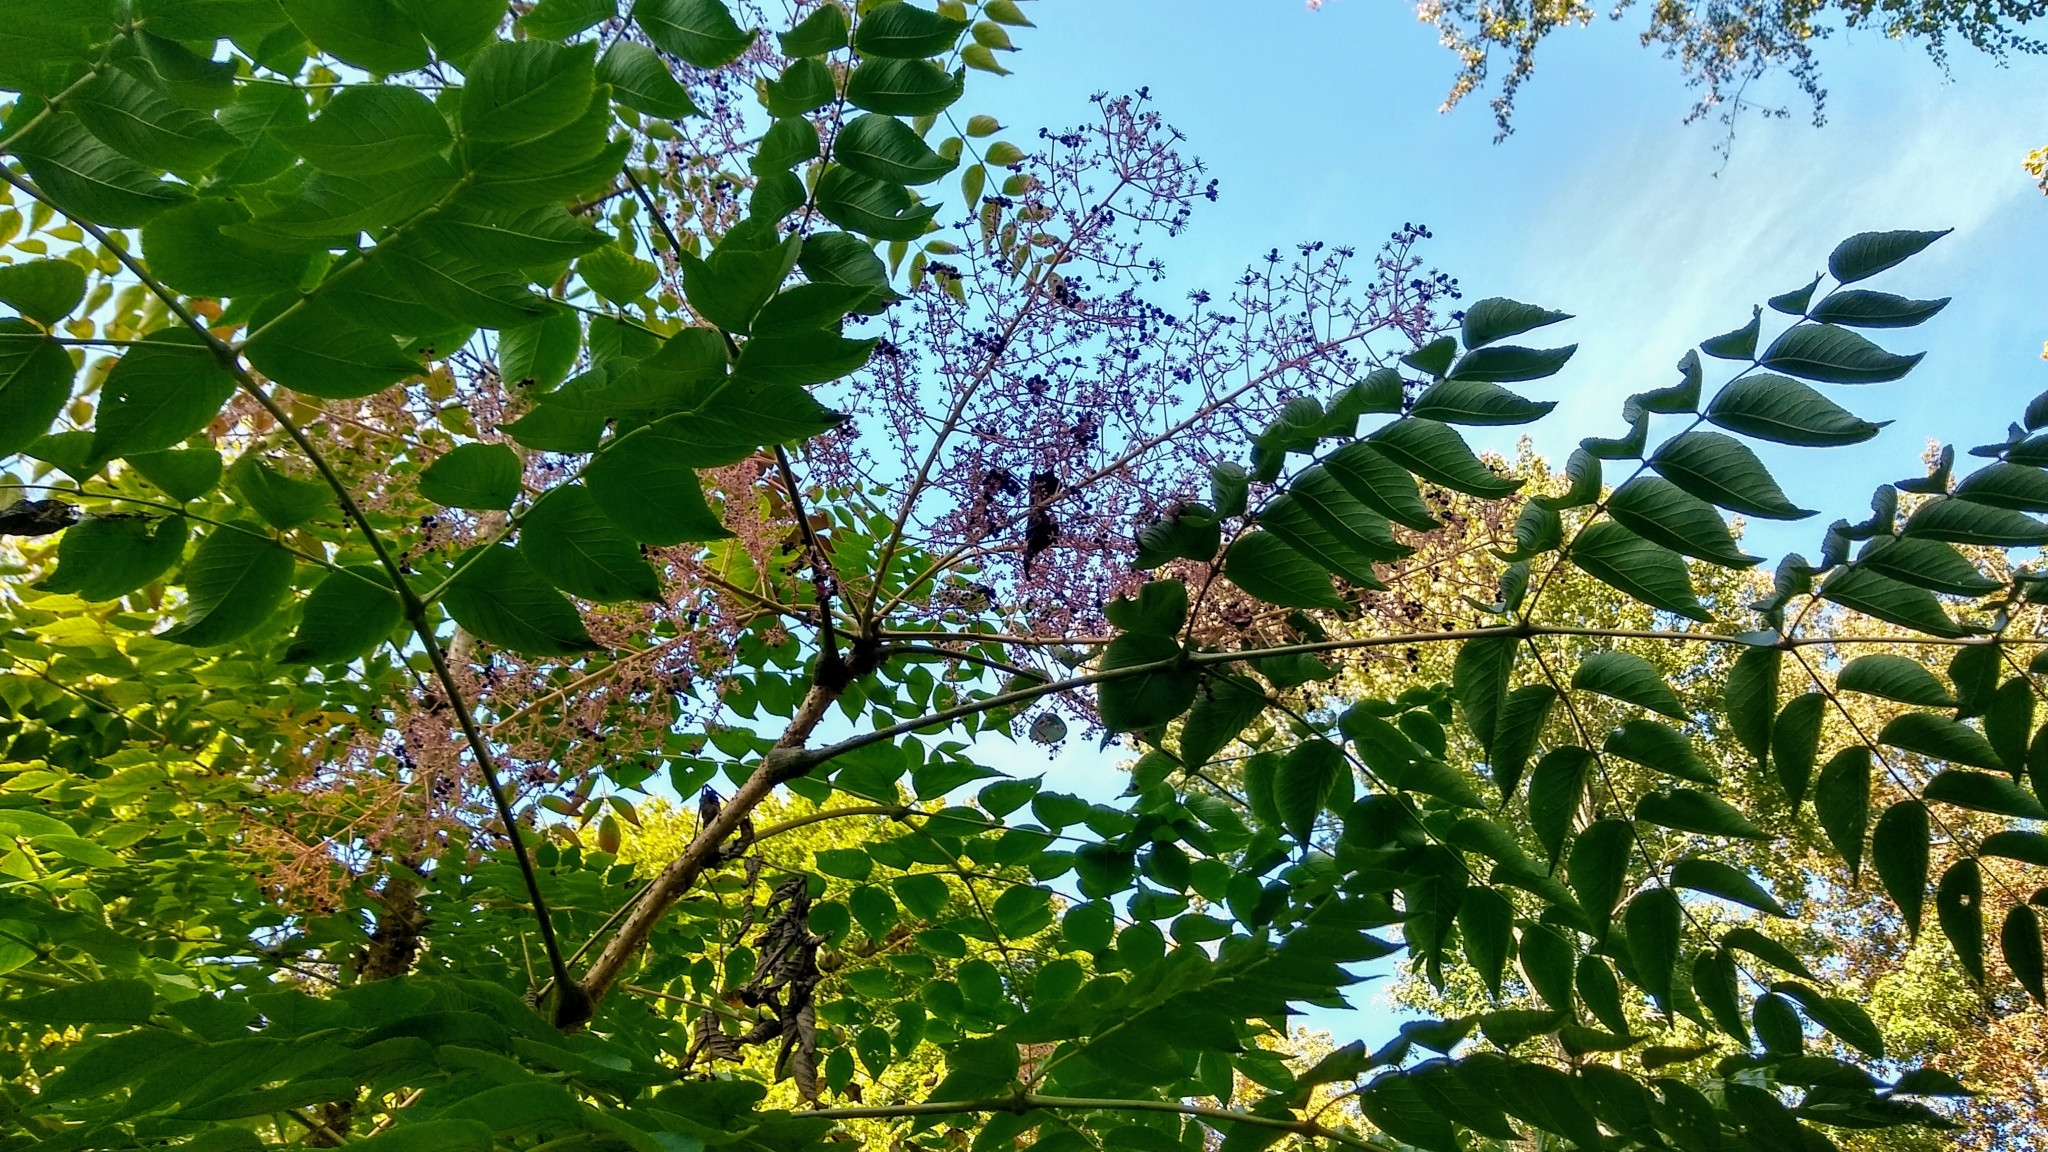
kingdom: Plantae
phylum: Tracheophyta
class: Magnoliopsida
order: Apiales
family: Araliaceae
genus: Aralia
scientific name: Aralia elata
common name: Japanese angelica-tree
